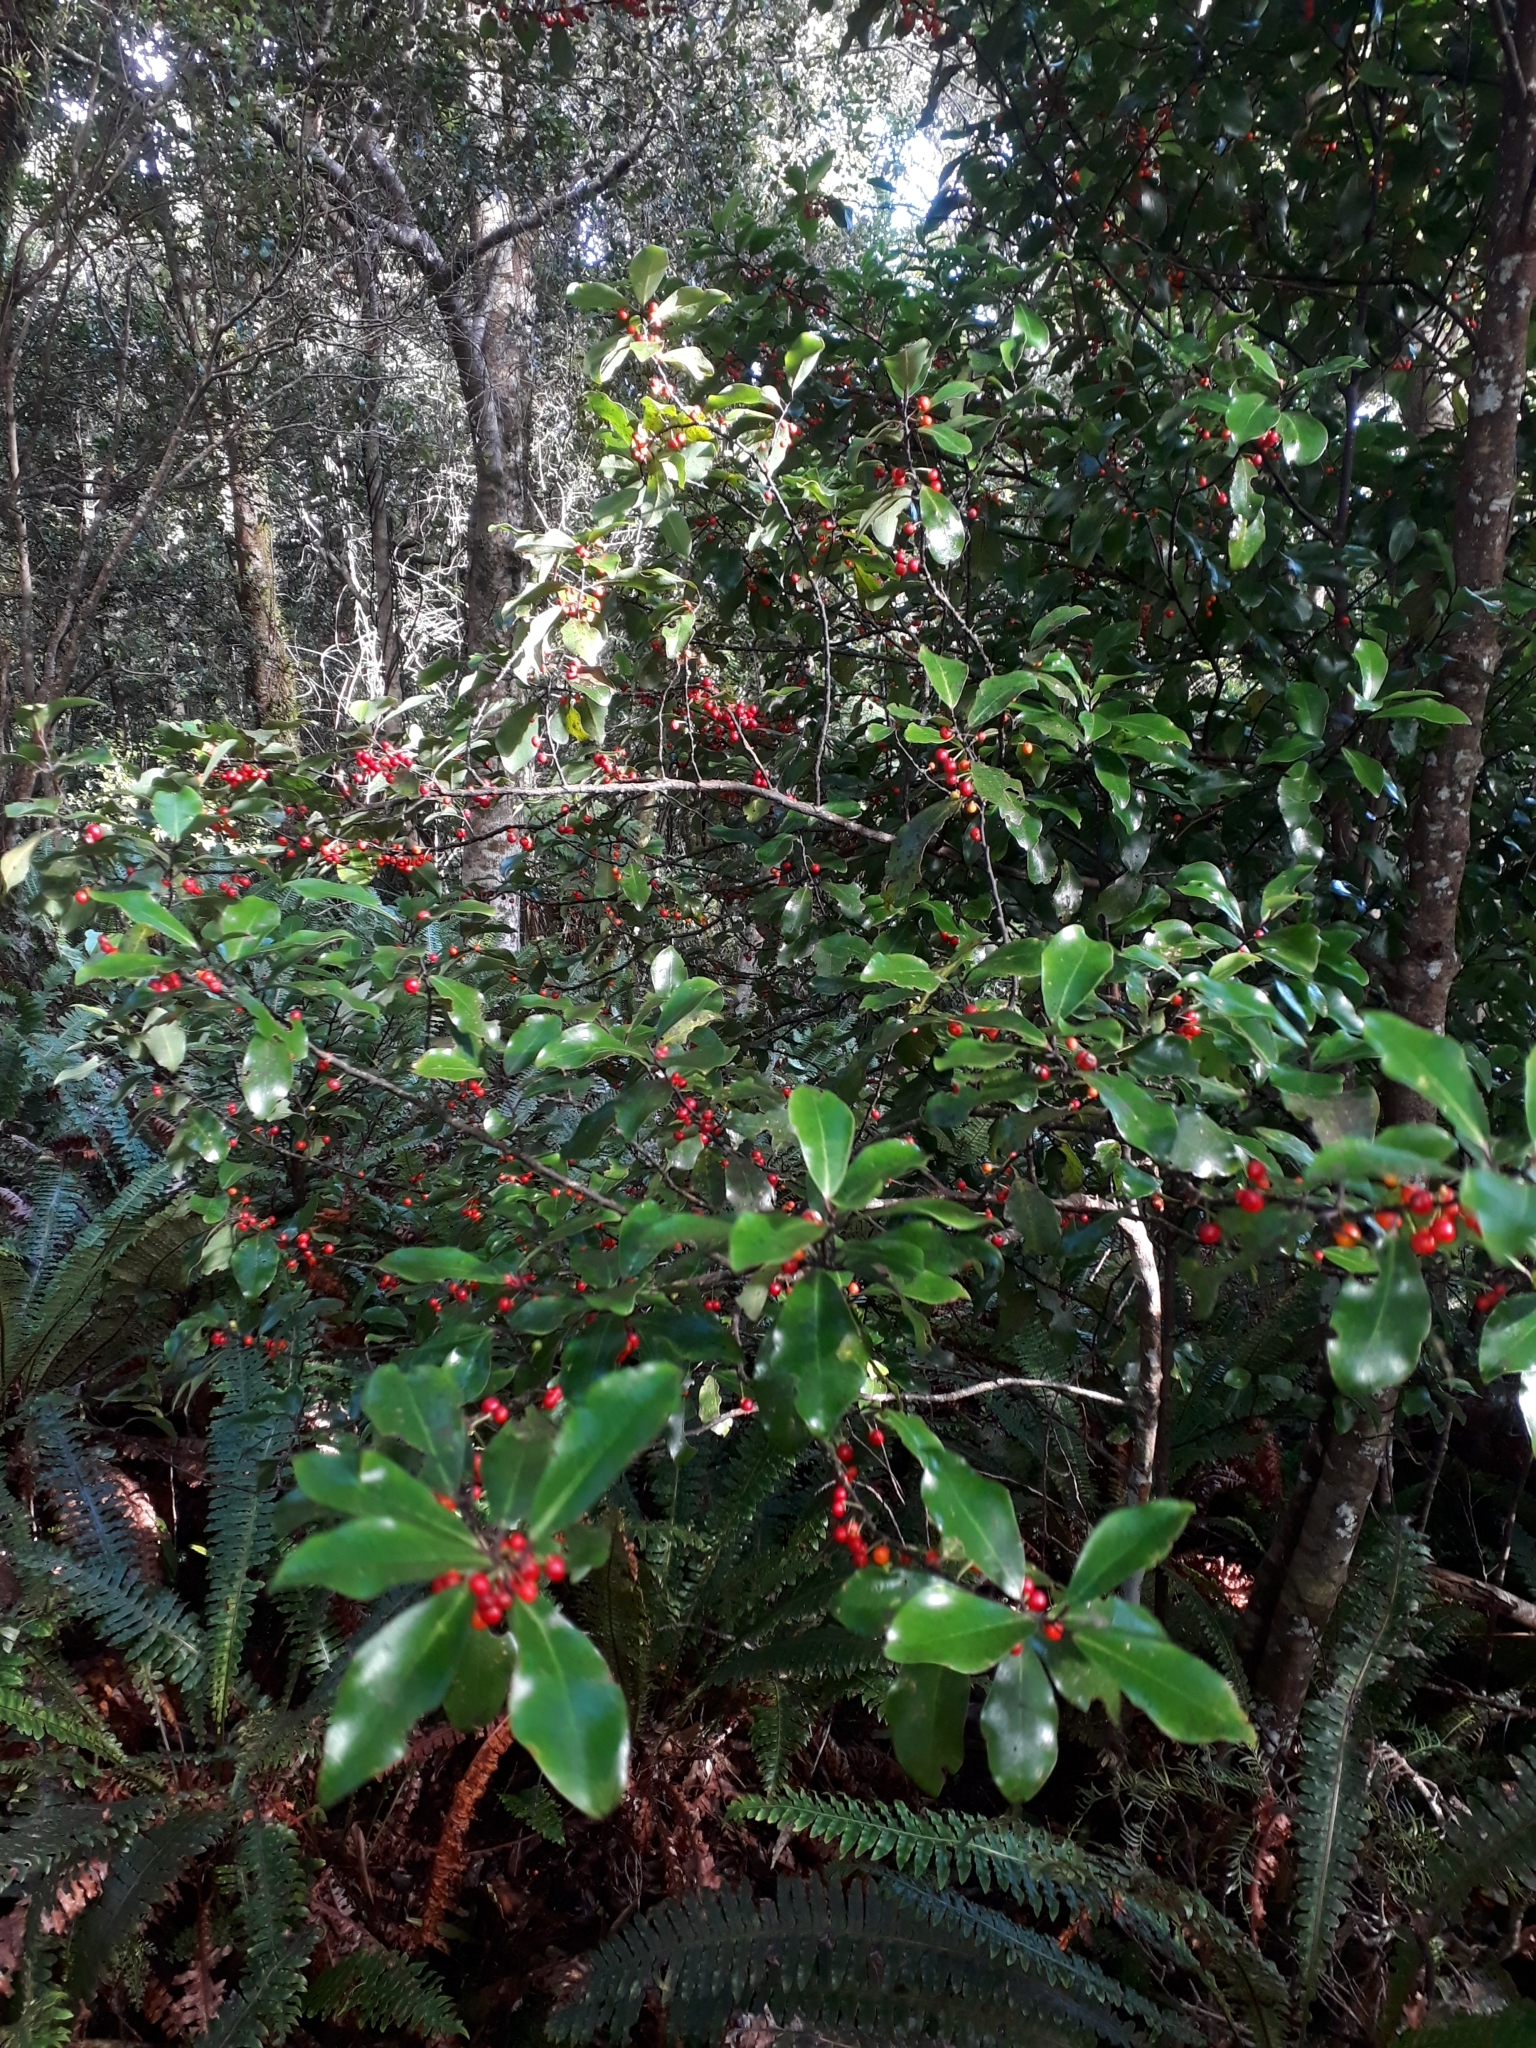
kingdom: Plantae
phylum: Tracheophyta
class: Magnoliopsida
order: Canellales
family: Winteraceae
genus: Pseudowintera
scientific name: Pseudowintera axillaris
